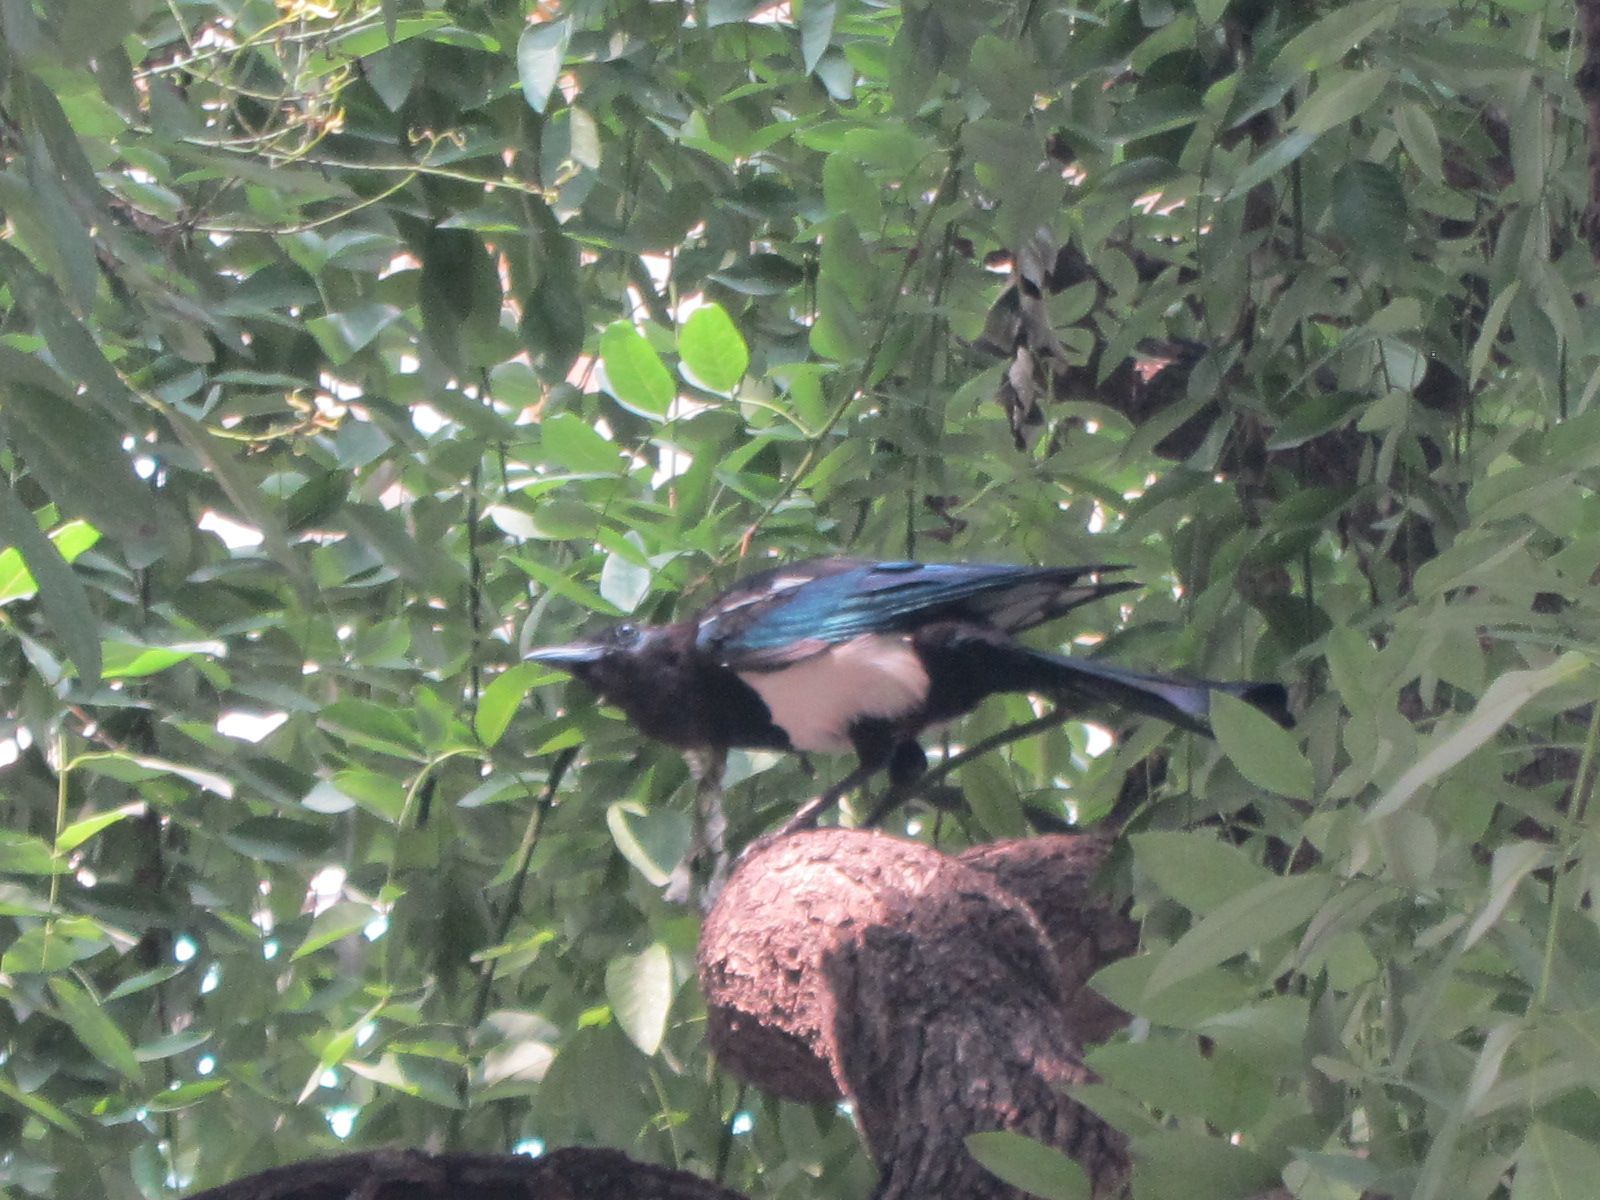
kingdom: Animalia
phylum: Chordata
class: Aves
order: Passeriformes
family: Corvidae
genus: Pica
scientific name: Pica serica
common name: Oriental magpie
